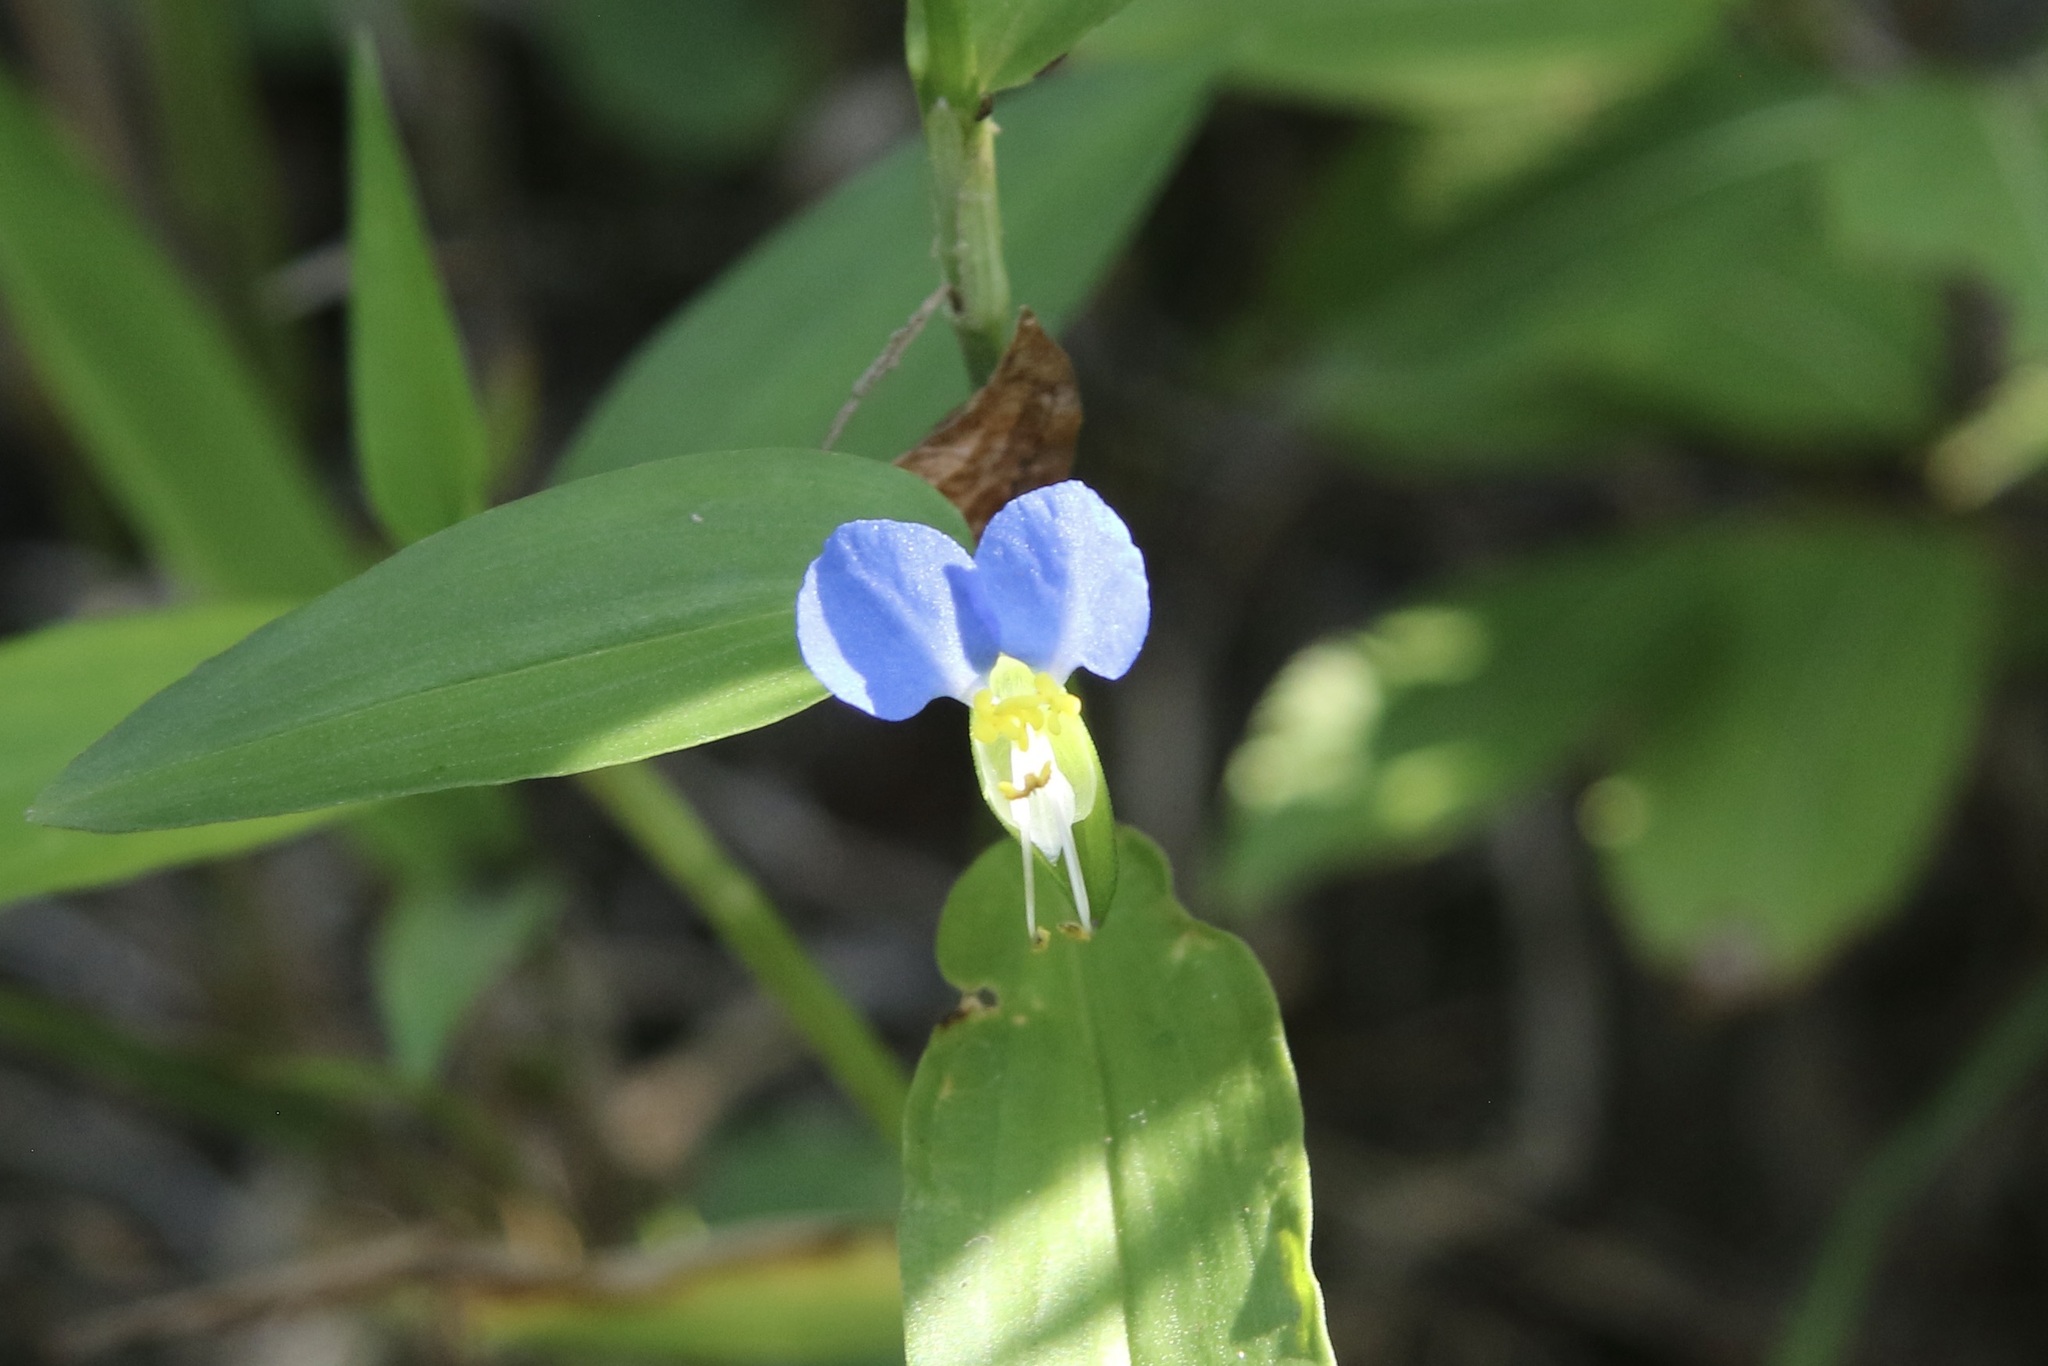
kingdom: Plantae
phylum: Tracheophyta
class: Liliopsida
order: Commelinales
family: Commelinaceae
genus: Commelina
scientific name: Commelina communis
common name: Asiatic dayflower
